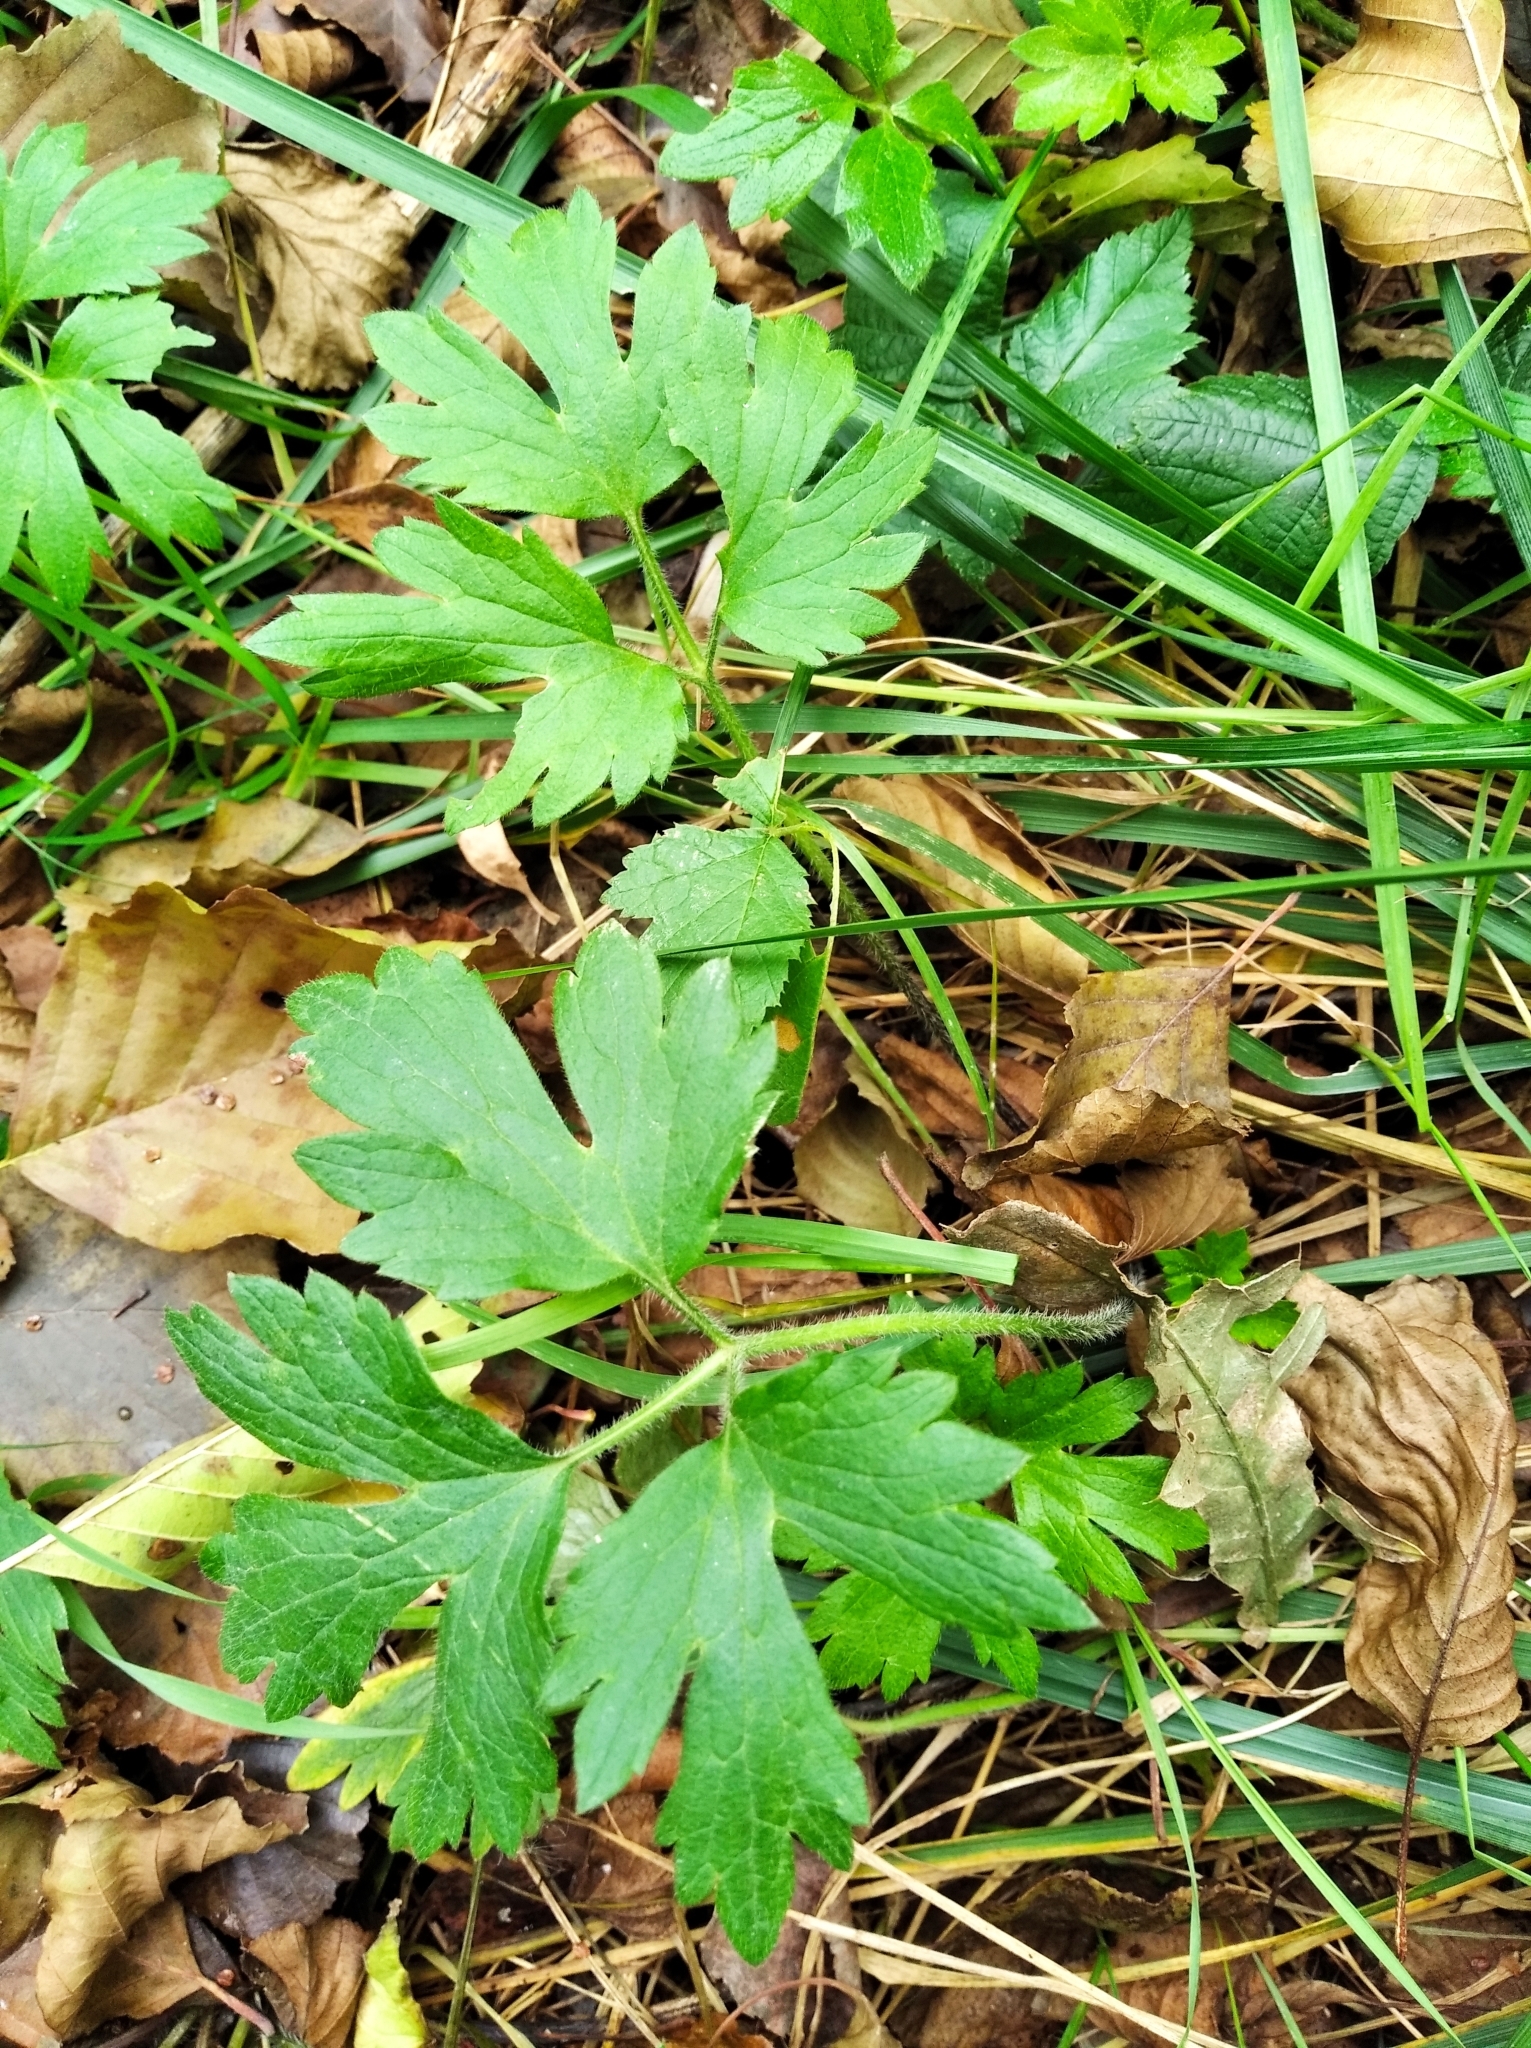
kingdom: Plantae
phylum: Tracheophyta
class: Magnoliopsida
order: Ranunculales
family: Ranunculaceae
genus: Ranunculus
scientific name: Ranunculus repens
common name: Creeping buttercup
